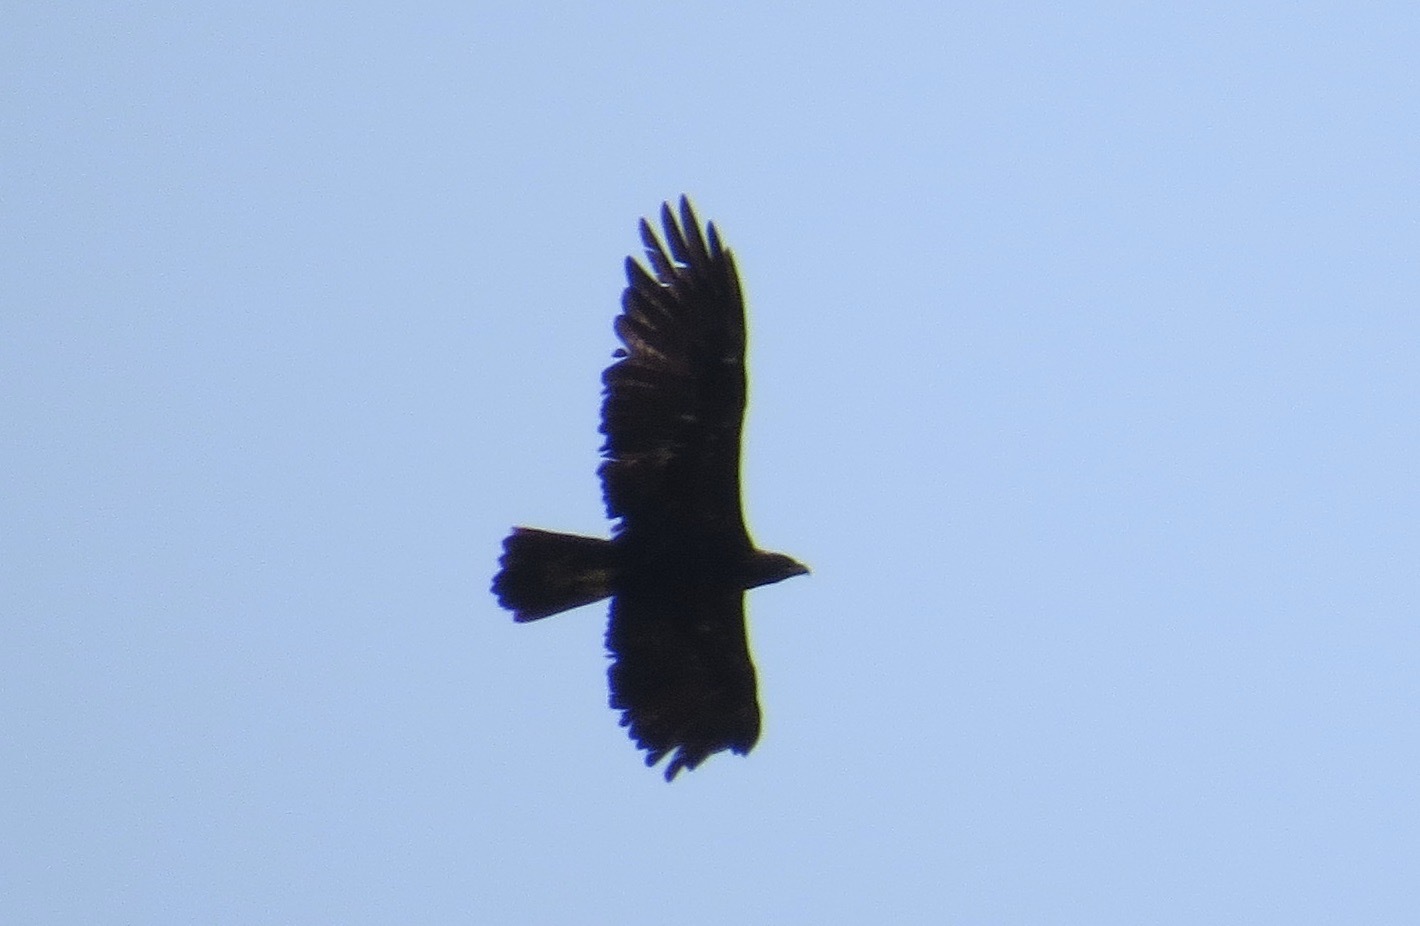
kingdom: Animalia
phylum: Chordata
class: Aves
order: Accipitriformes
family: Accipitridae
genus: Aquila
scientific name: Aquila chrysaetos
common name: Golden eagle
